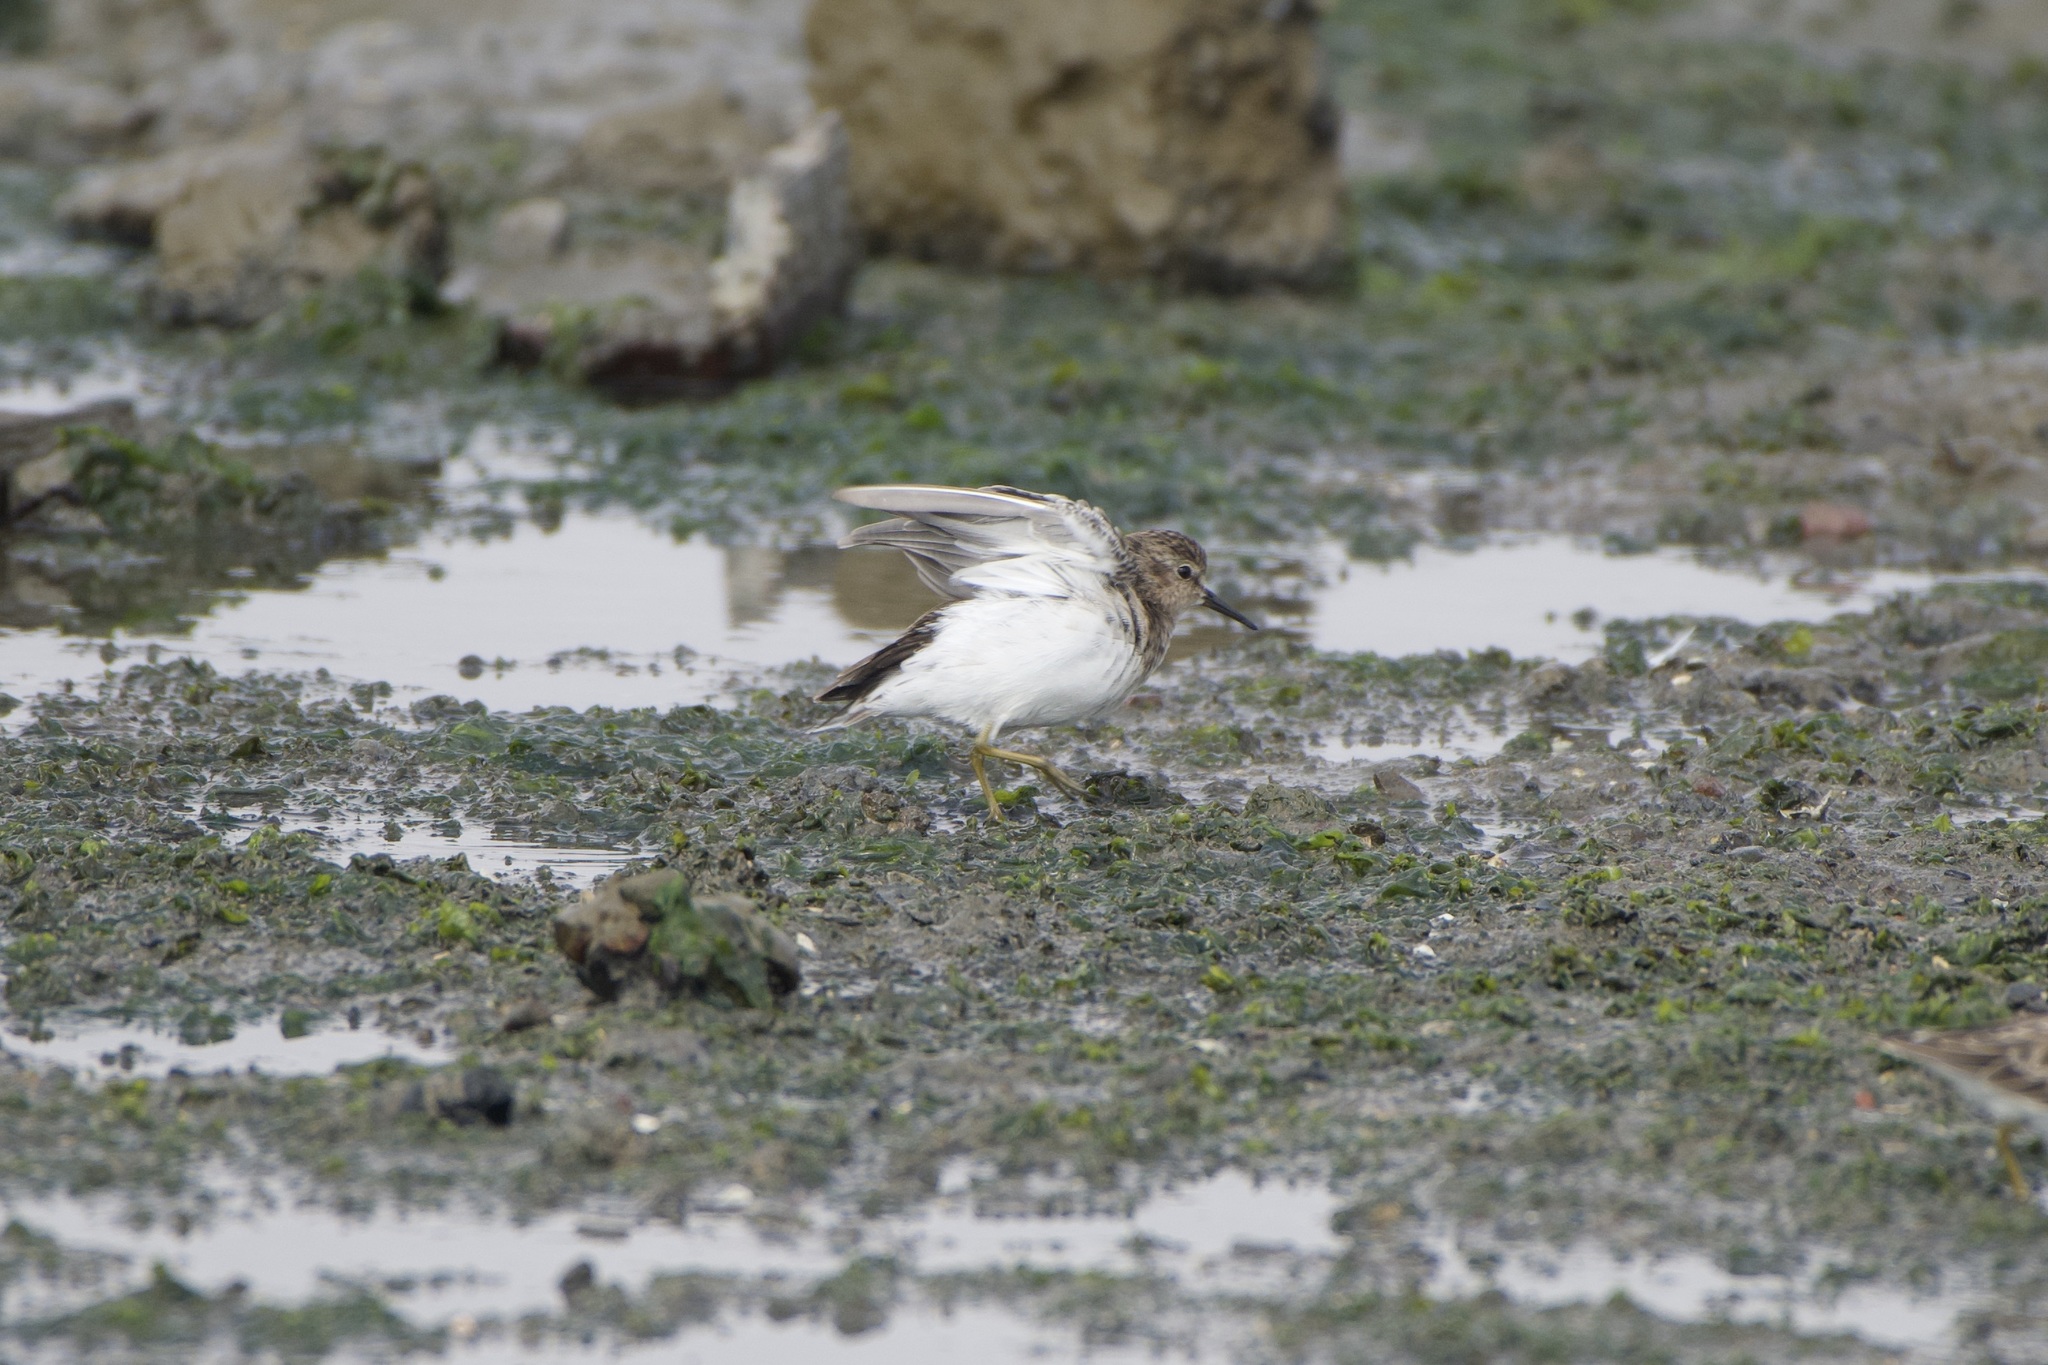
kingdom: Animalia
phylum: Chordata
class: Aves
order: Charadriiformes
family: Scolopacidae
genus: Calidris
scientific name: Calidris minutilla
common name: Least sandpiper
